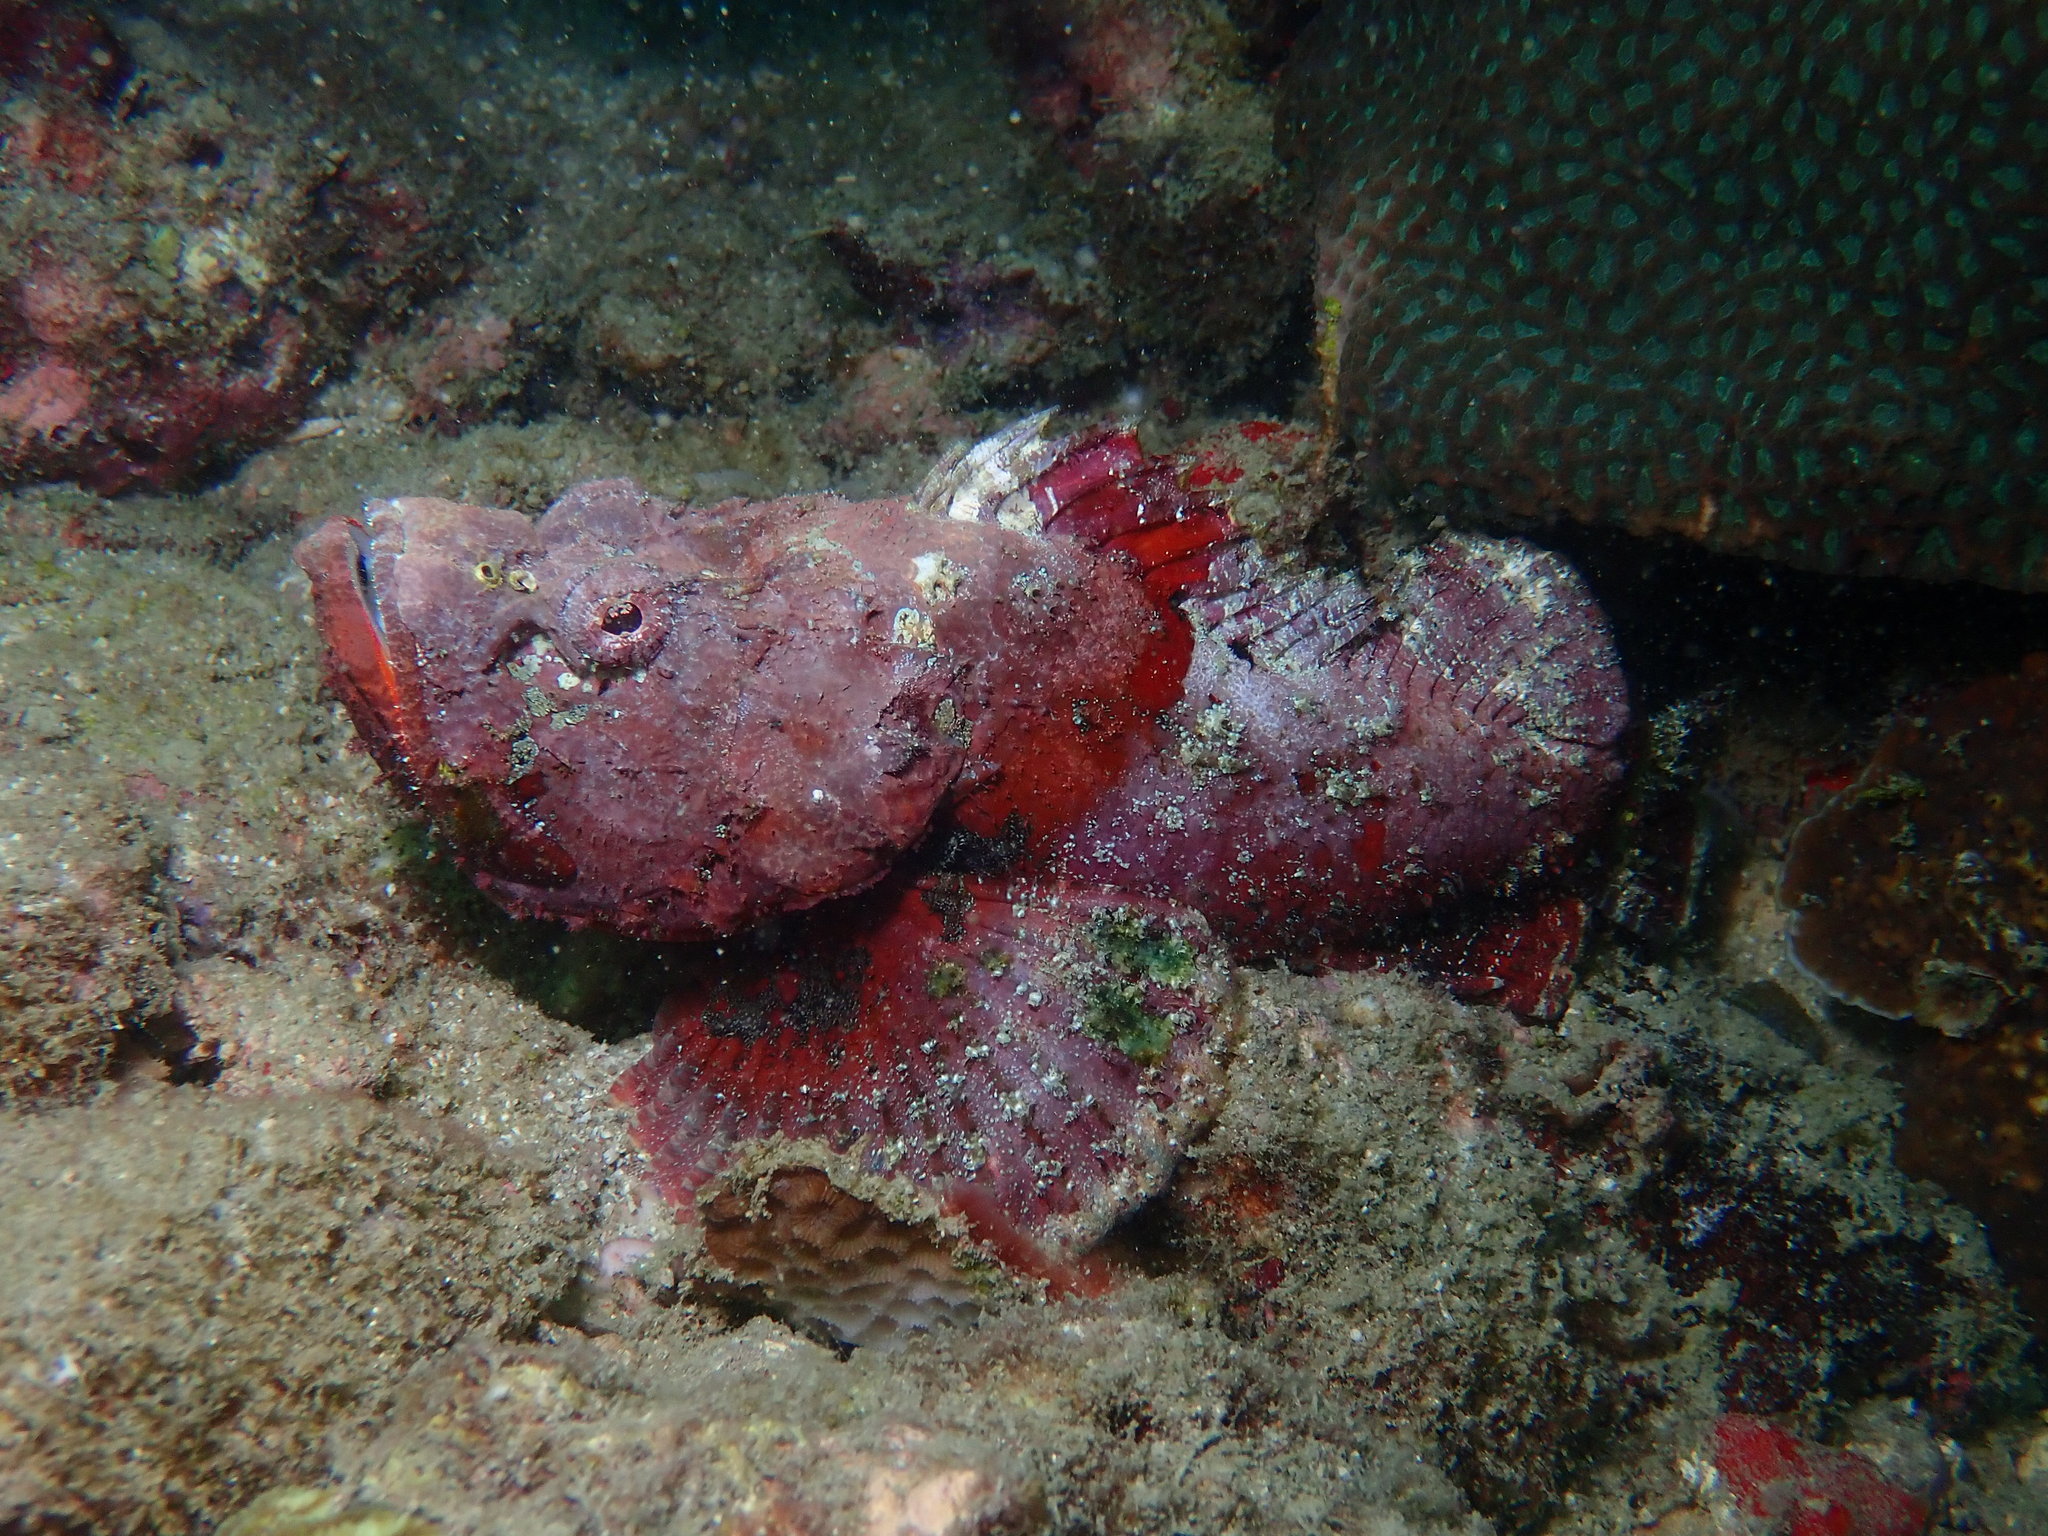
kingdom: Animalia
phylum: Chordata
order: Scorpaeniformes
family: Scorpaenidae
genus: Scorpaenopsis
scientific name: Scorpaenopsis diabolus
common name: False stonefish
